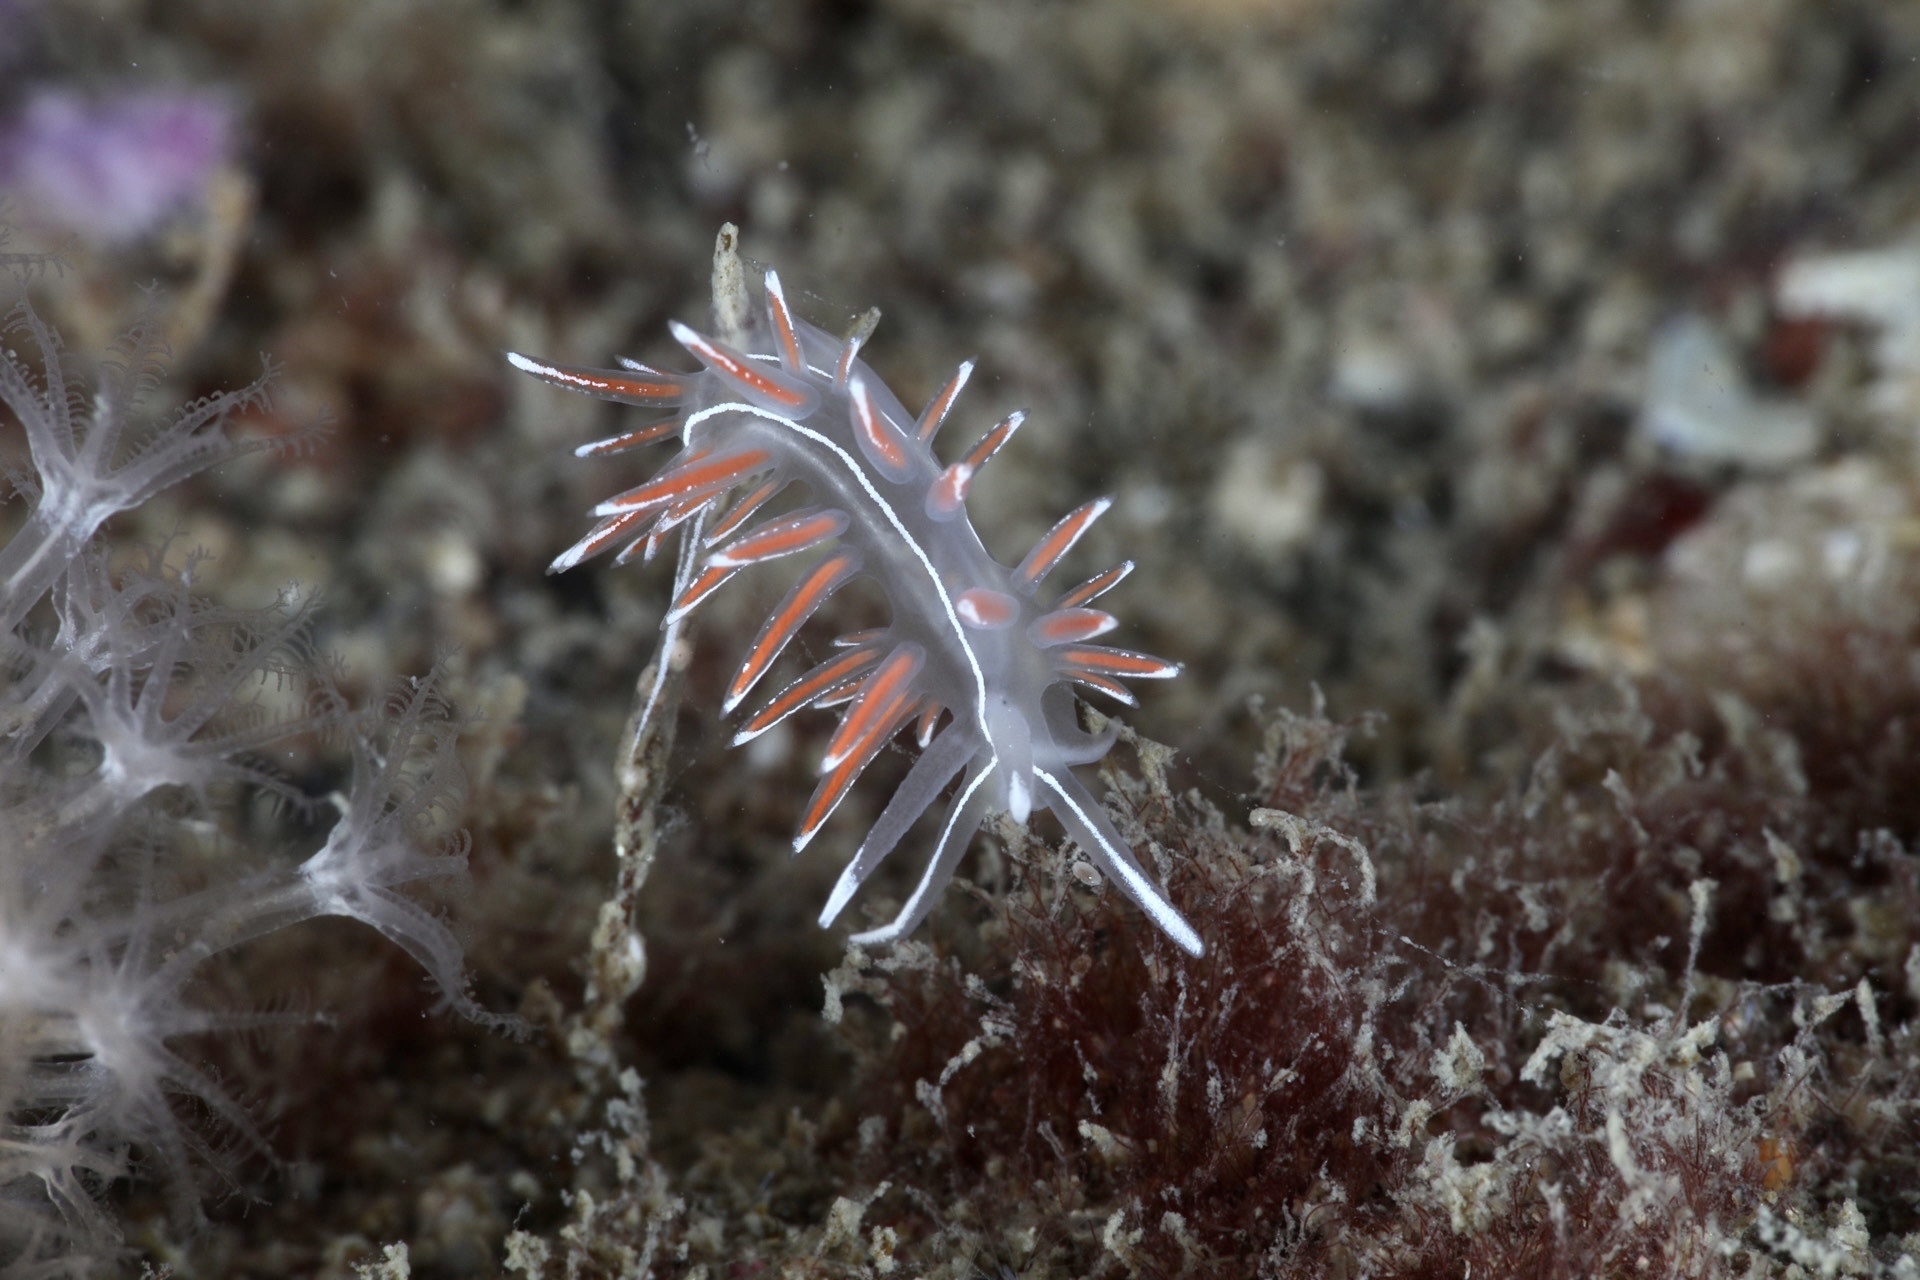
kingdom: Animalia
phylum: Mollusca
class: Gastropoda
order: Nudibranchia
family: Coryphellidae
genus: Coryphella
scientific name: Coryphella lineata
